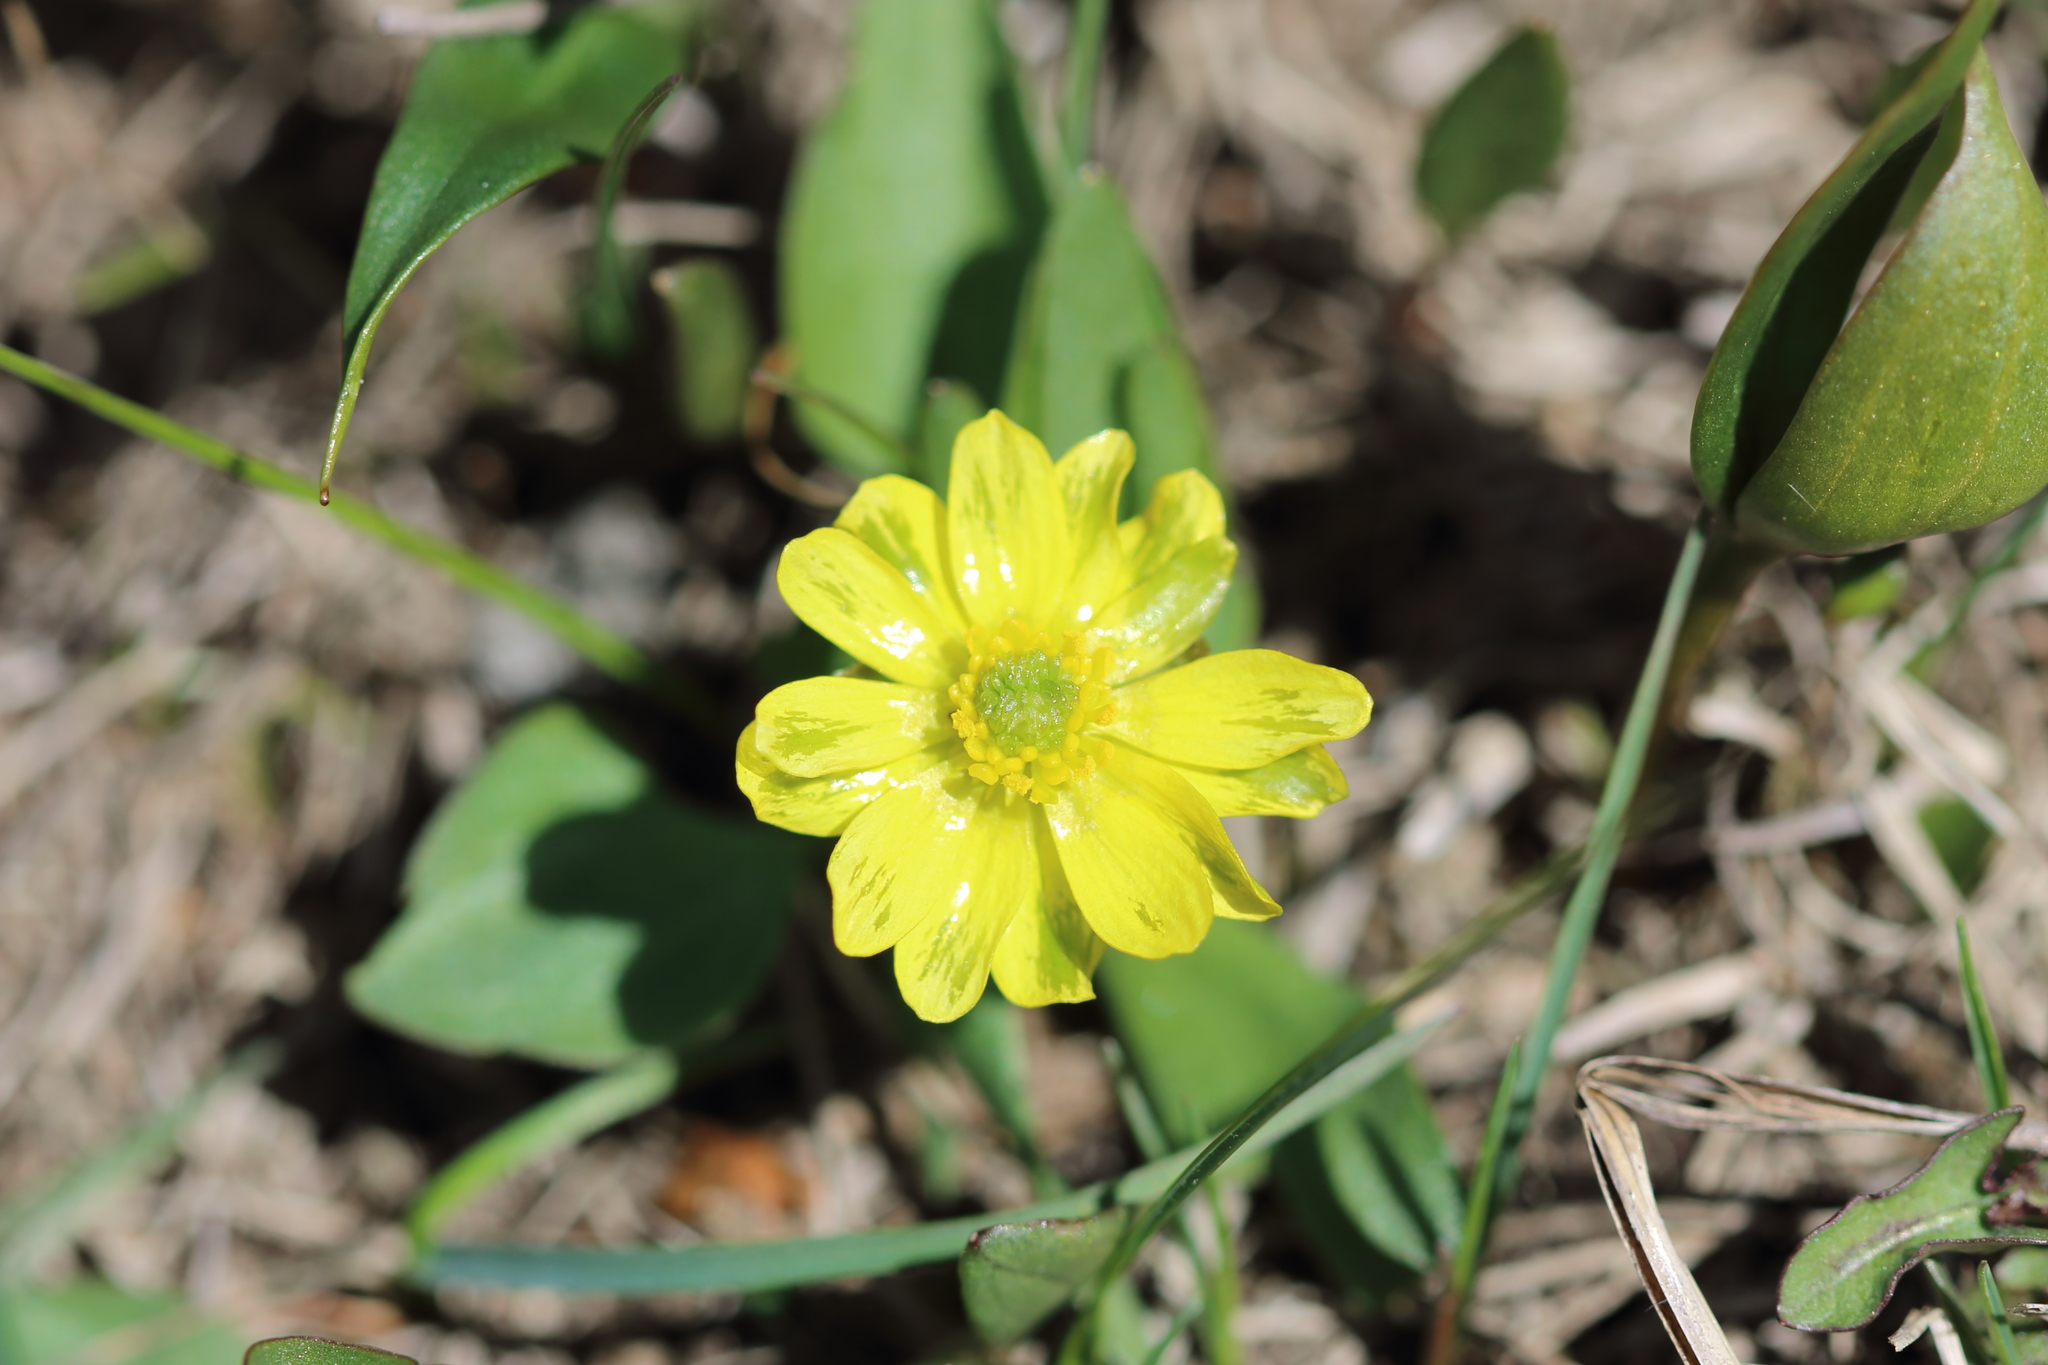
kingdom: Plantae
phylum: Tracheophyta
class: Magnoliopsida
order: Ranunculales
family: Ranunculaceae
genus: Ranunculus
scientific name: Ranunculus glaberrimus
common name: Sagebrush buttercup
